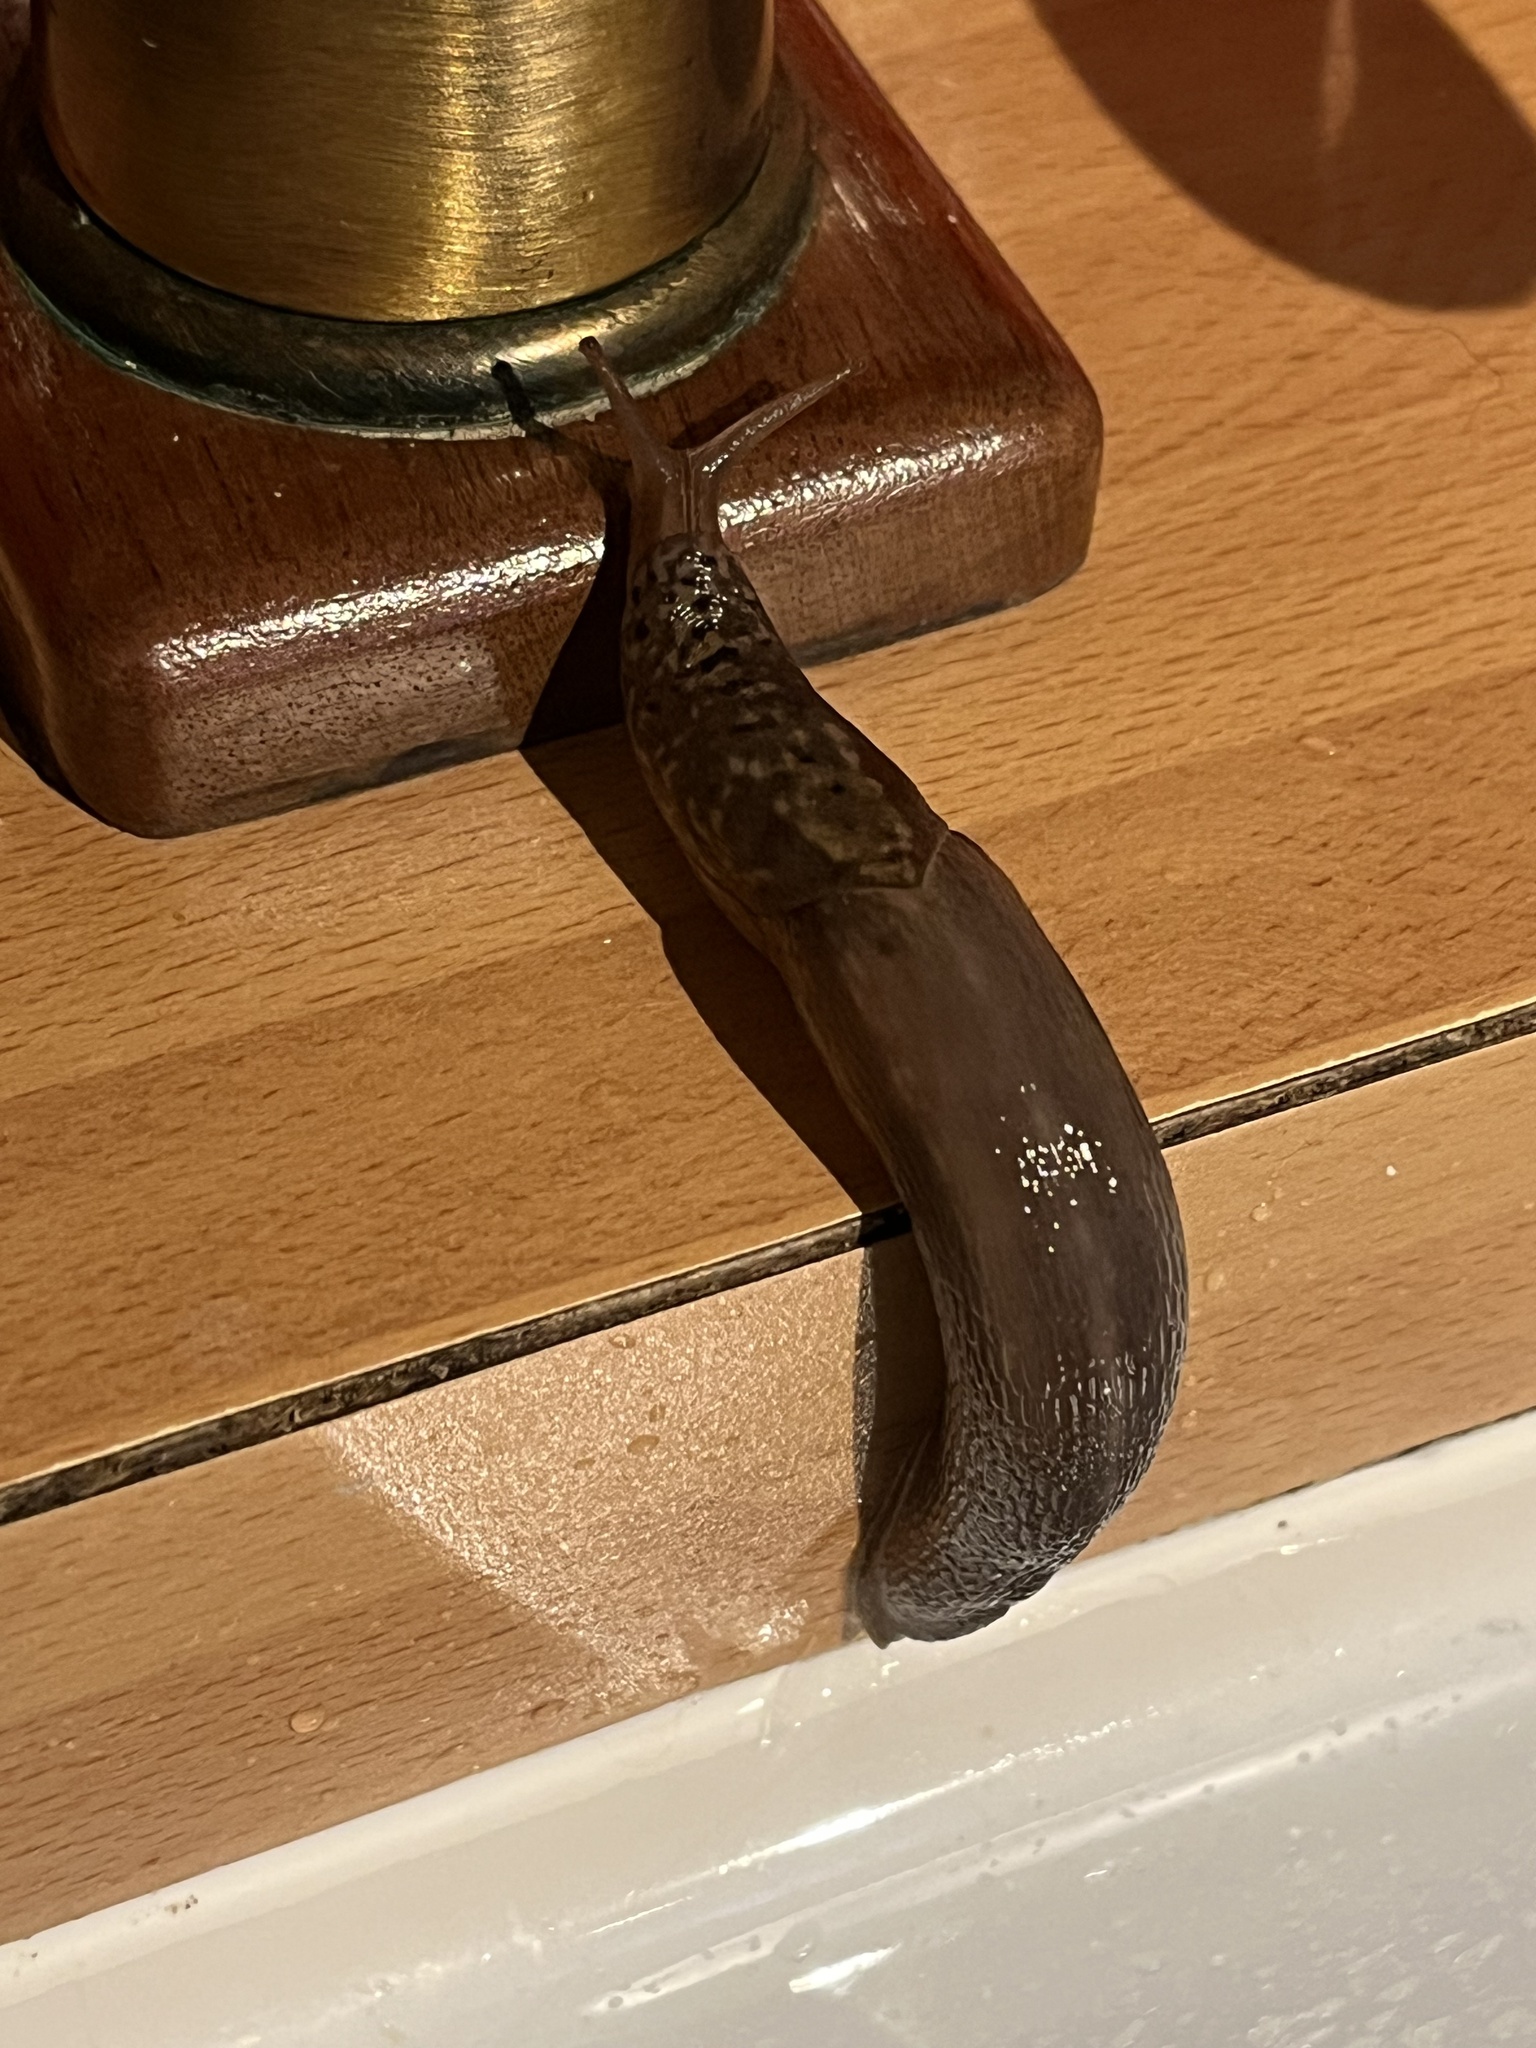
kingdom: Animalia
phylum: Mollusca
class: Gastropoda
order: Stylommatophora
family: Limacidae
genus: Limax
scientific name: Limax maximus
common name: Great grey slug
